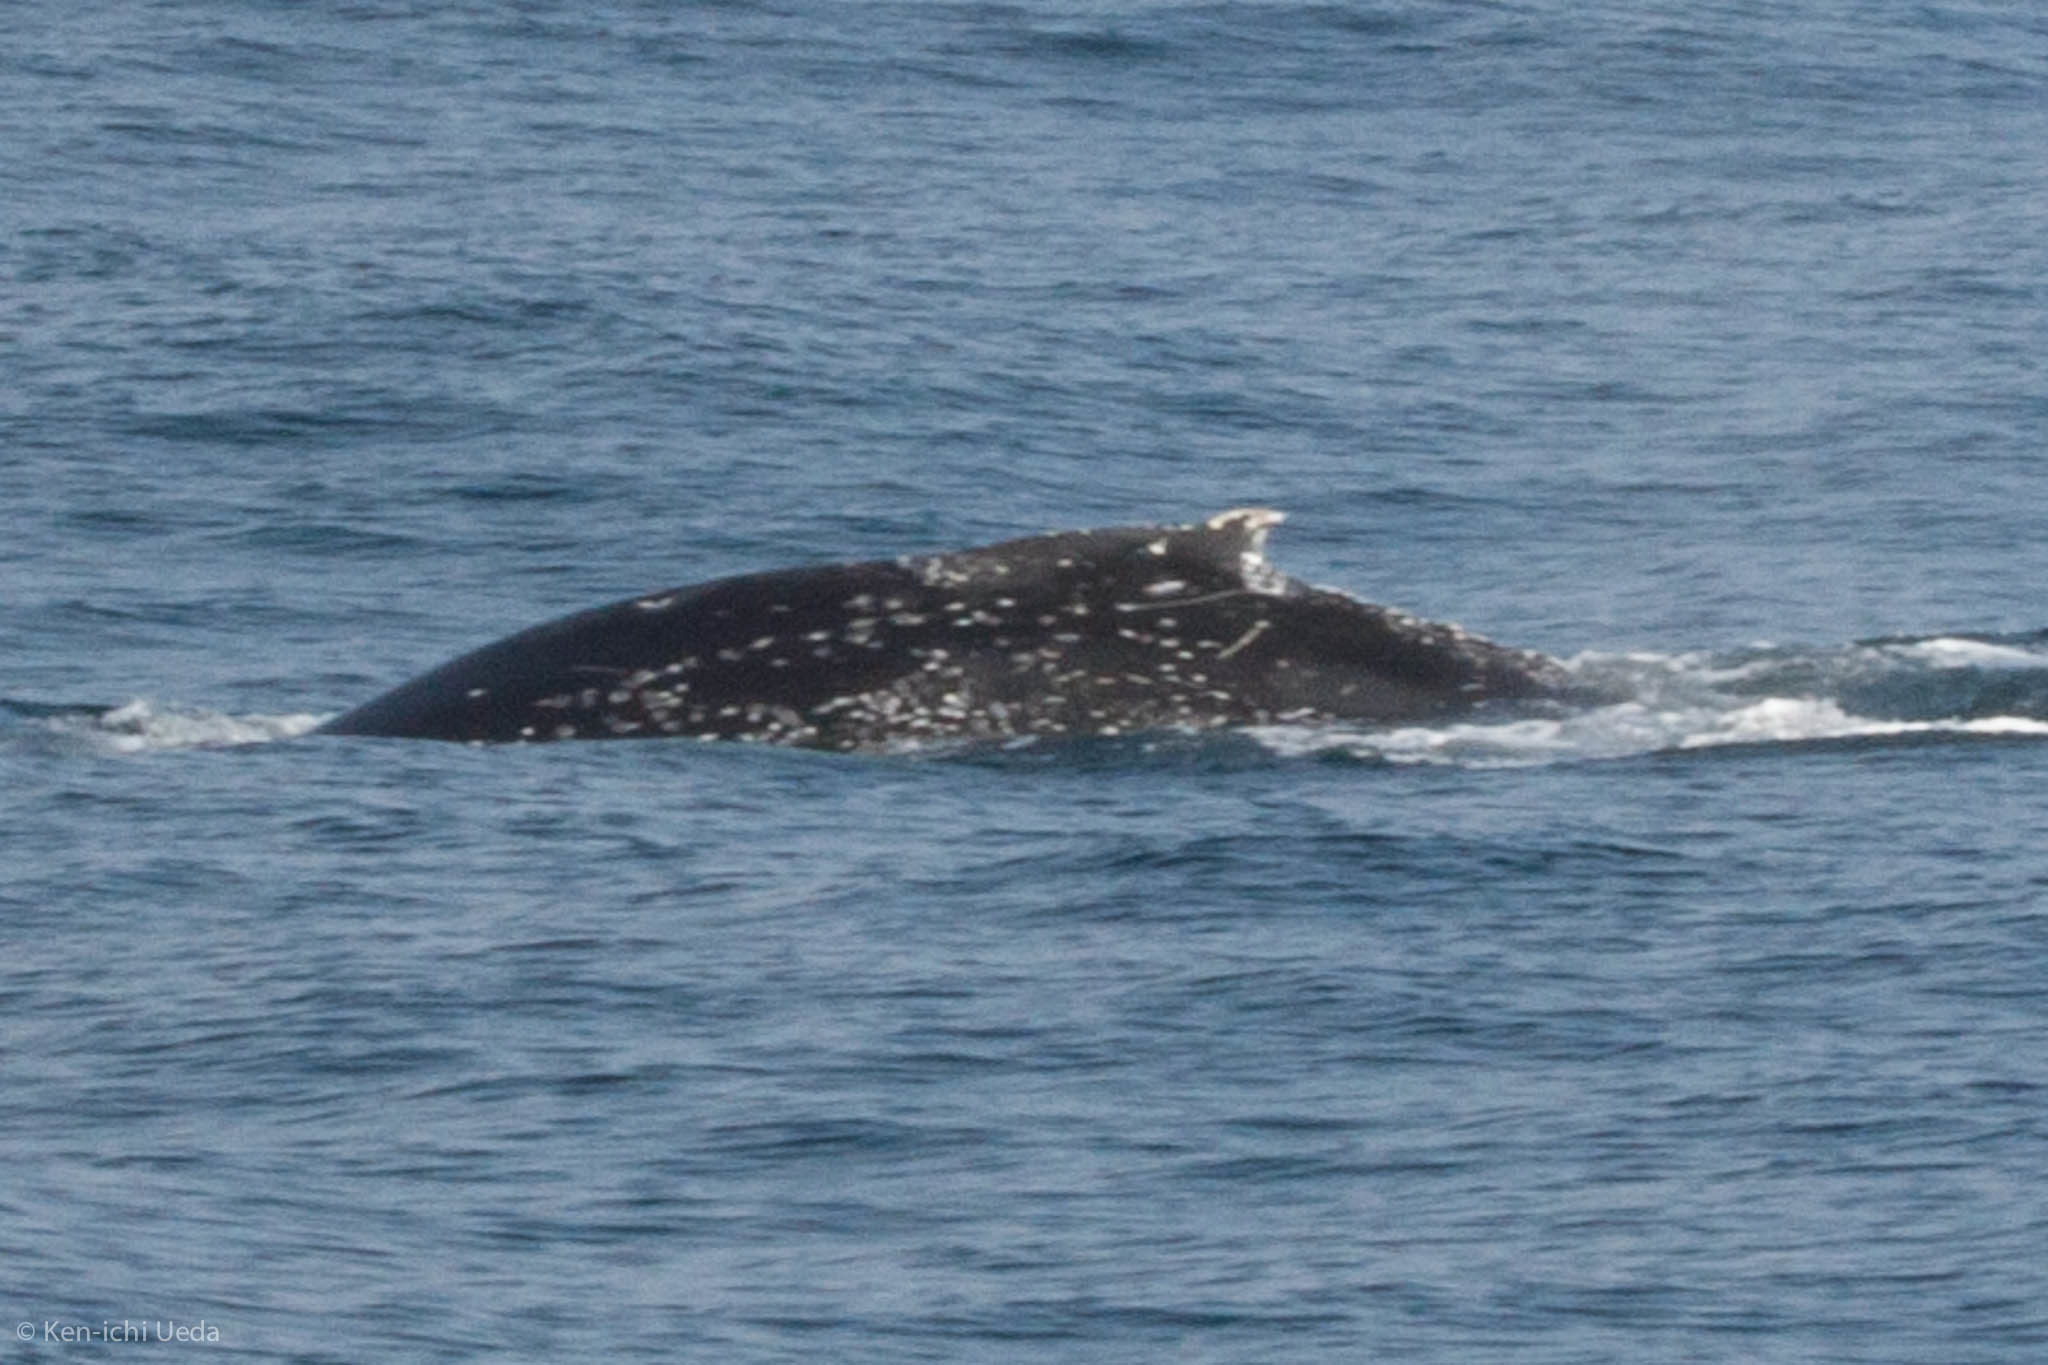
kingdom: Animalia
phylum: Chordata
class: Mammalia
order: Cetacea
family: Balaenopteridae
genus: Megaptera
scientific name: Megaptera novaeangliae
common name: Humpback whale
